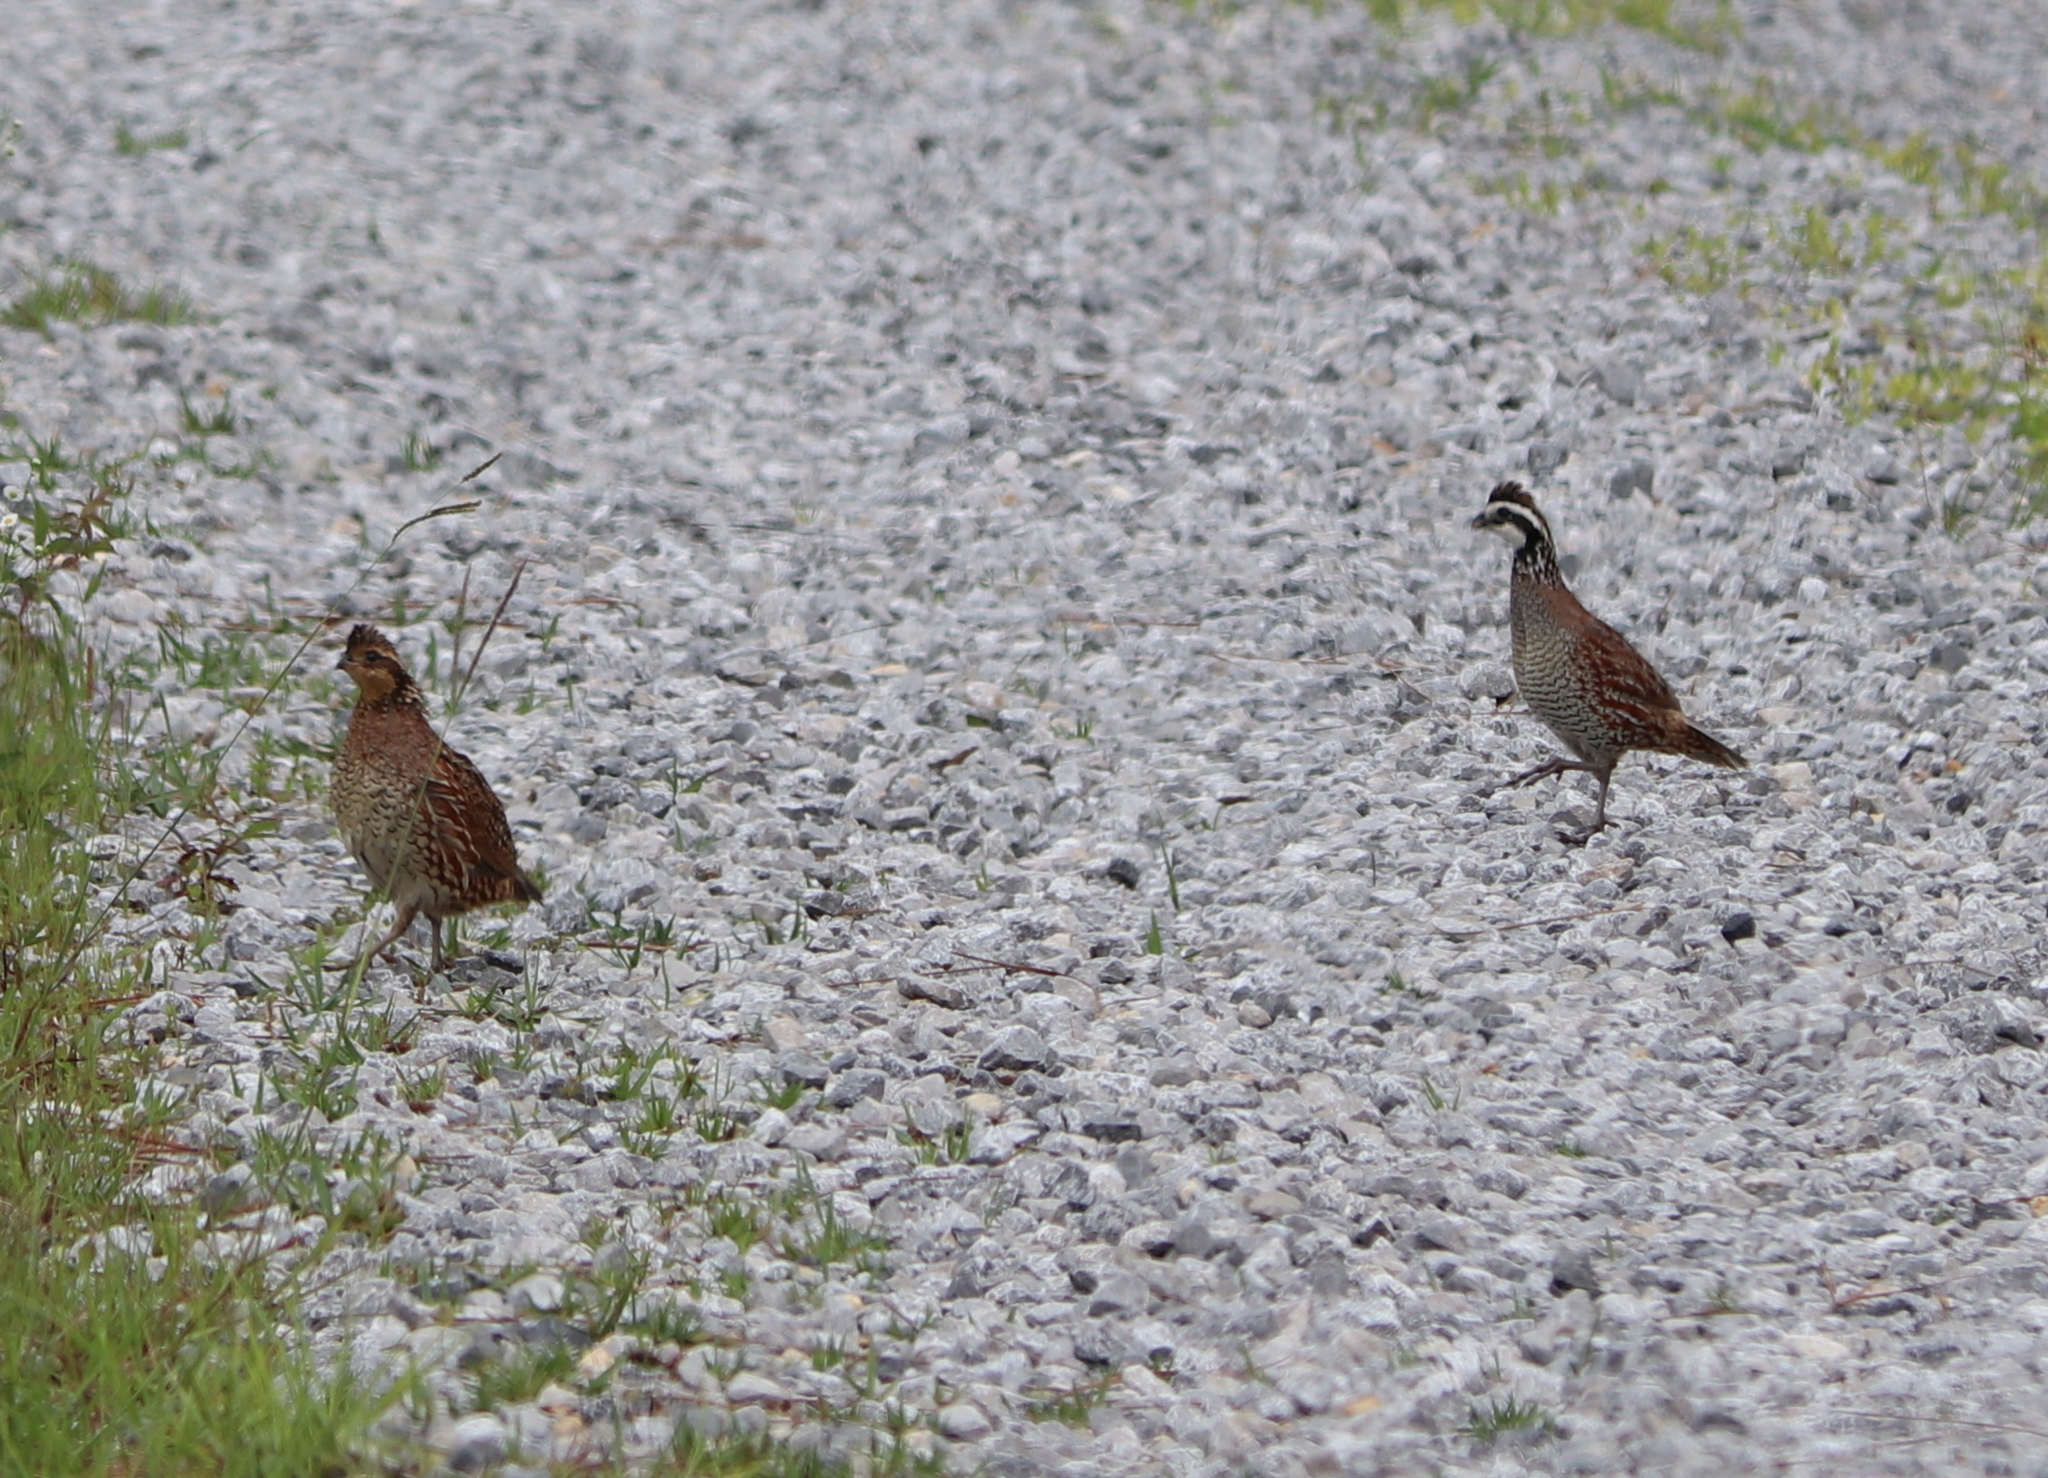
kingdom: Animalia
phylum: Chordata
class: Aves
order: Galliformes
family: Odontophoridae
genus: Colinus
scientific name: Colinus virginianus
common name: Northern bobwhite
